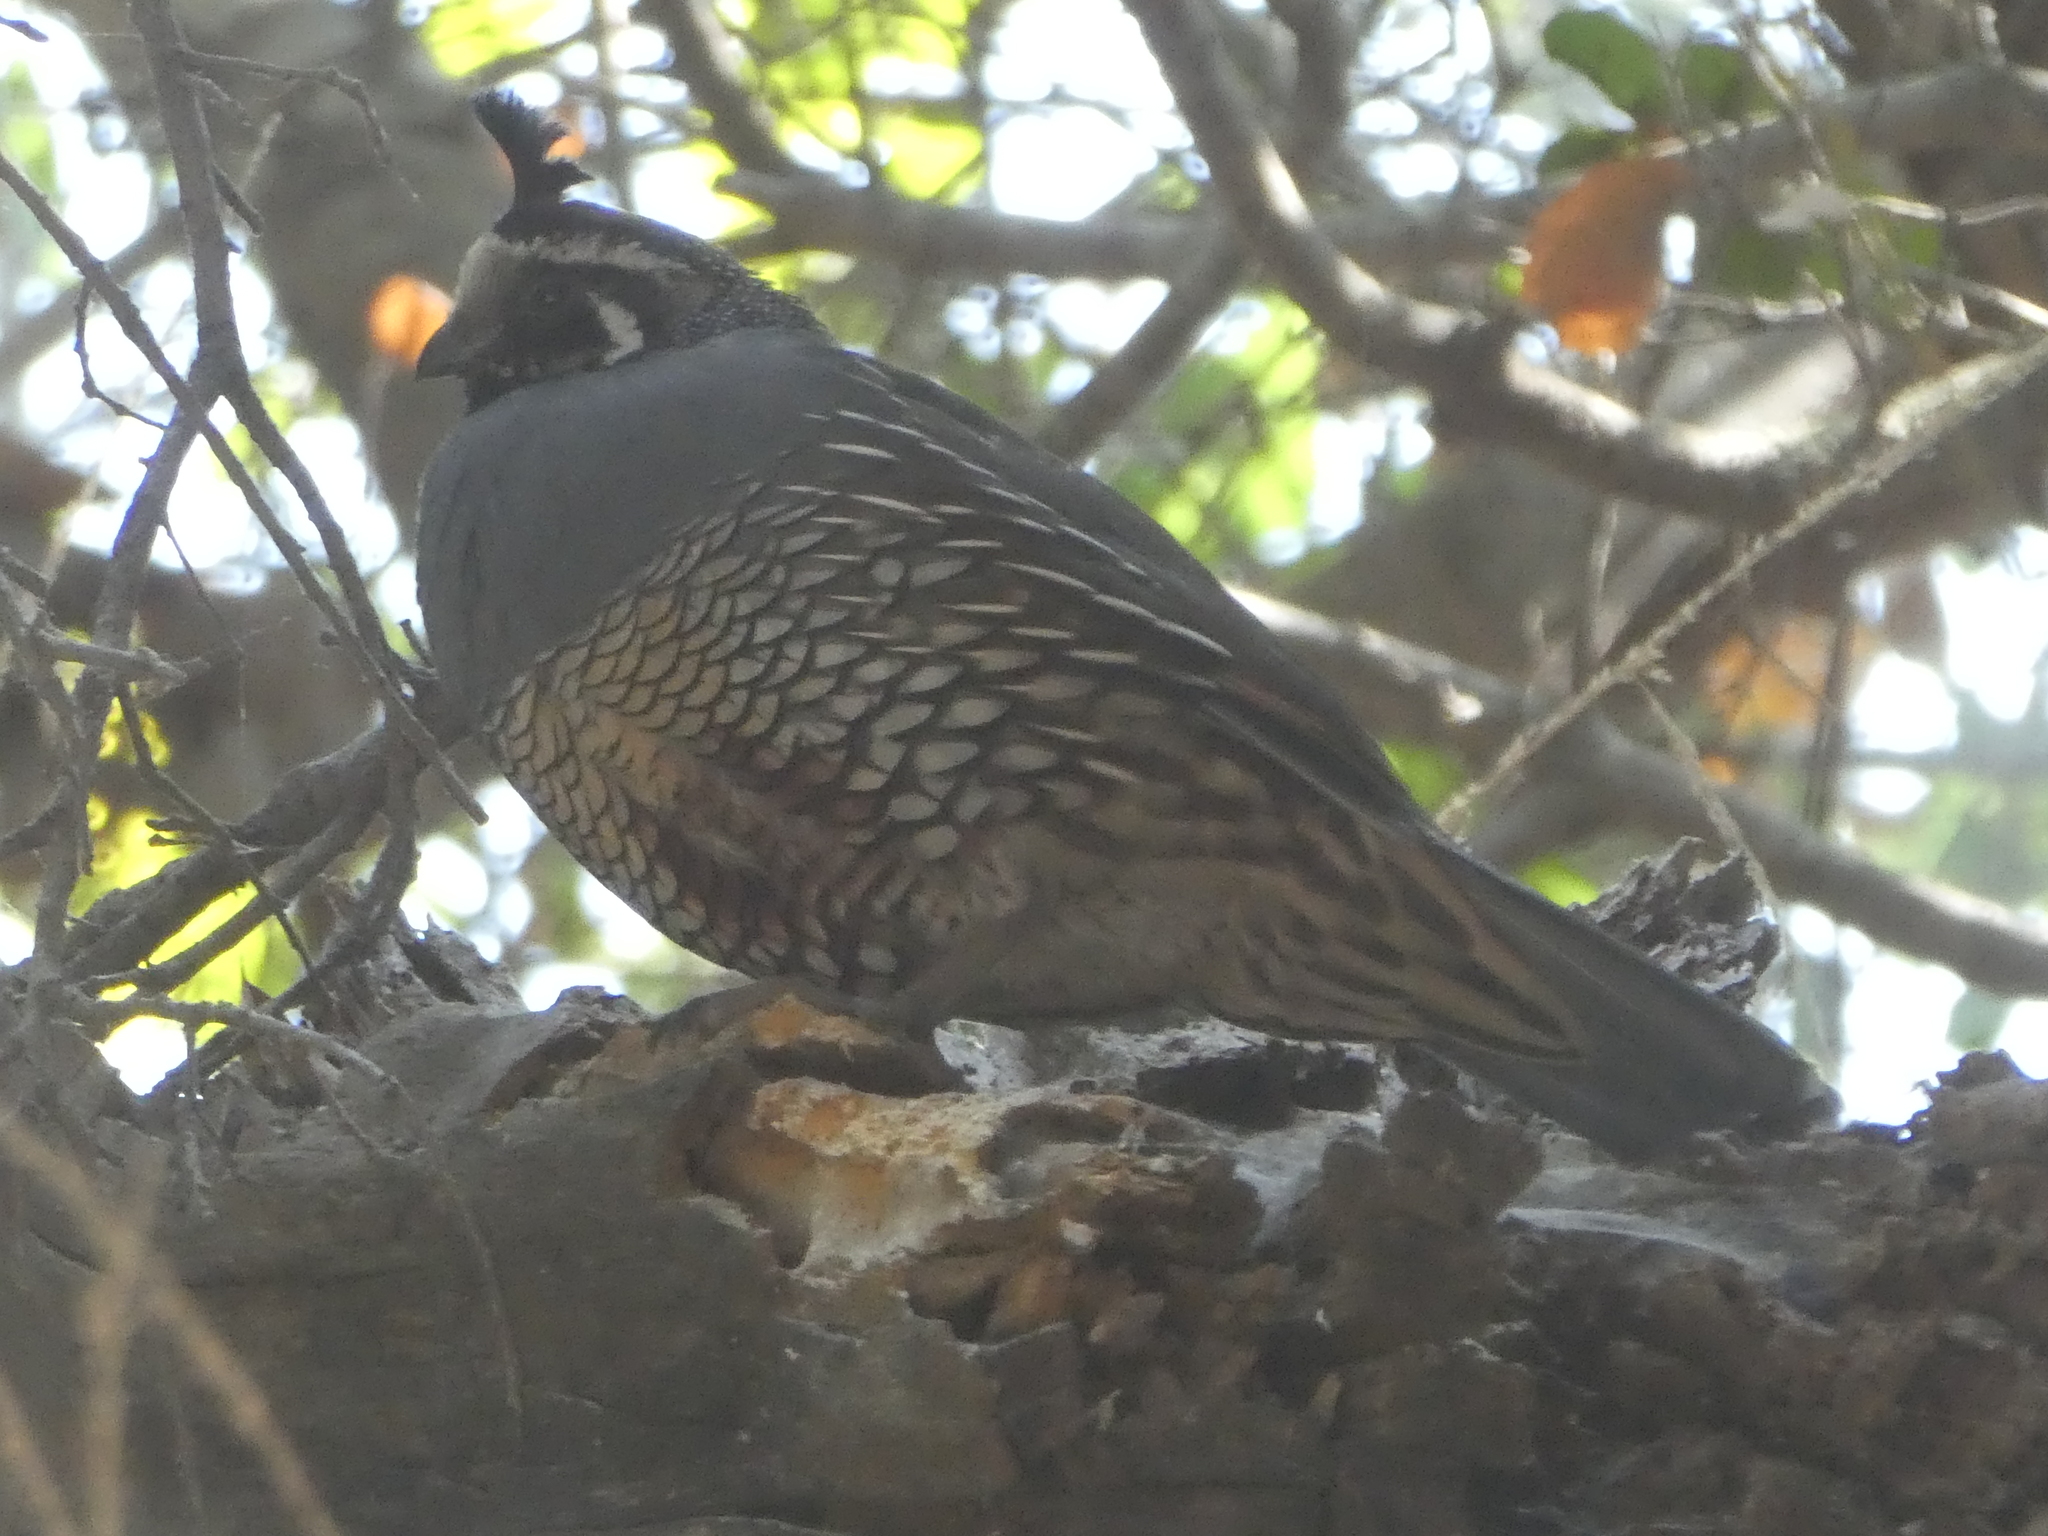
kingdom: Animalia
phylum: Chordata
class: Aves
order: Galliformes
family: Odontophoridae
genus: Callipepla
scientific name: Callipepla californica
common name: California quail
